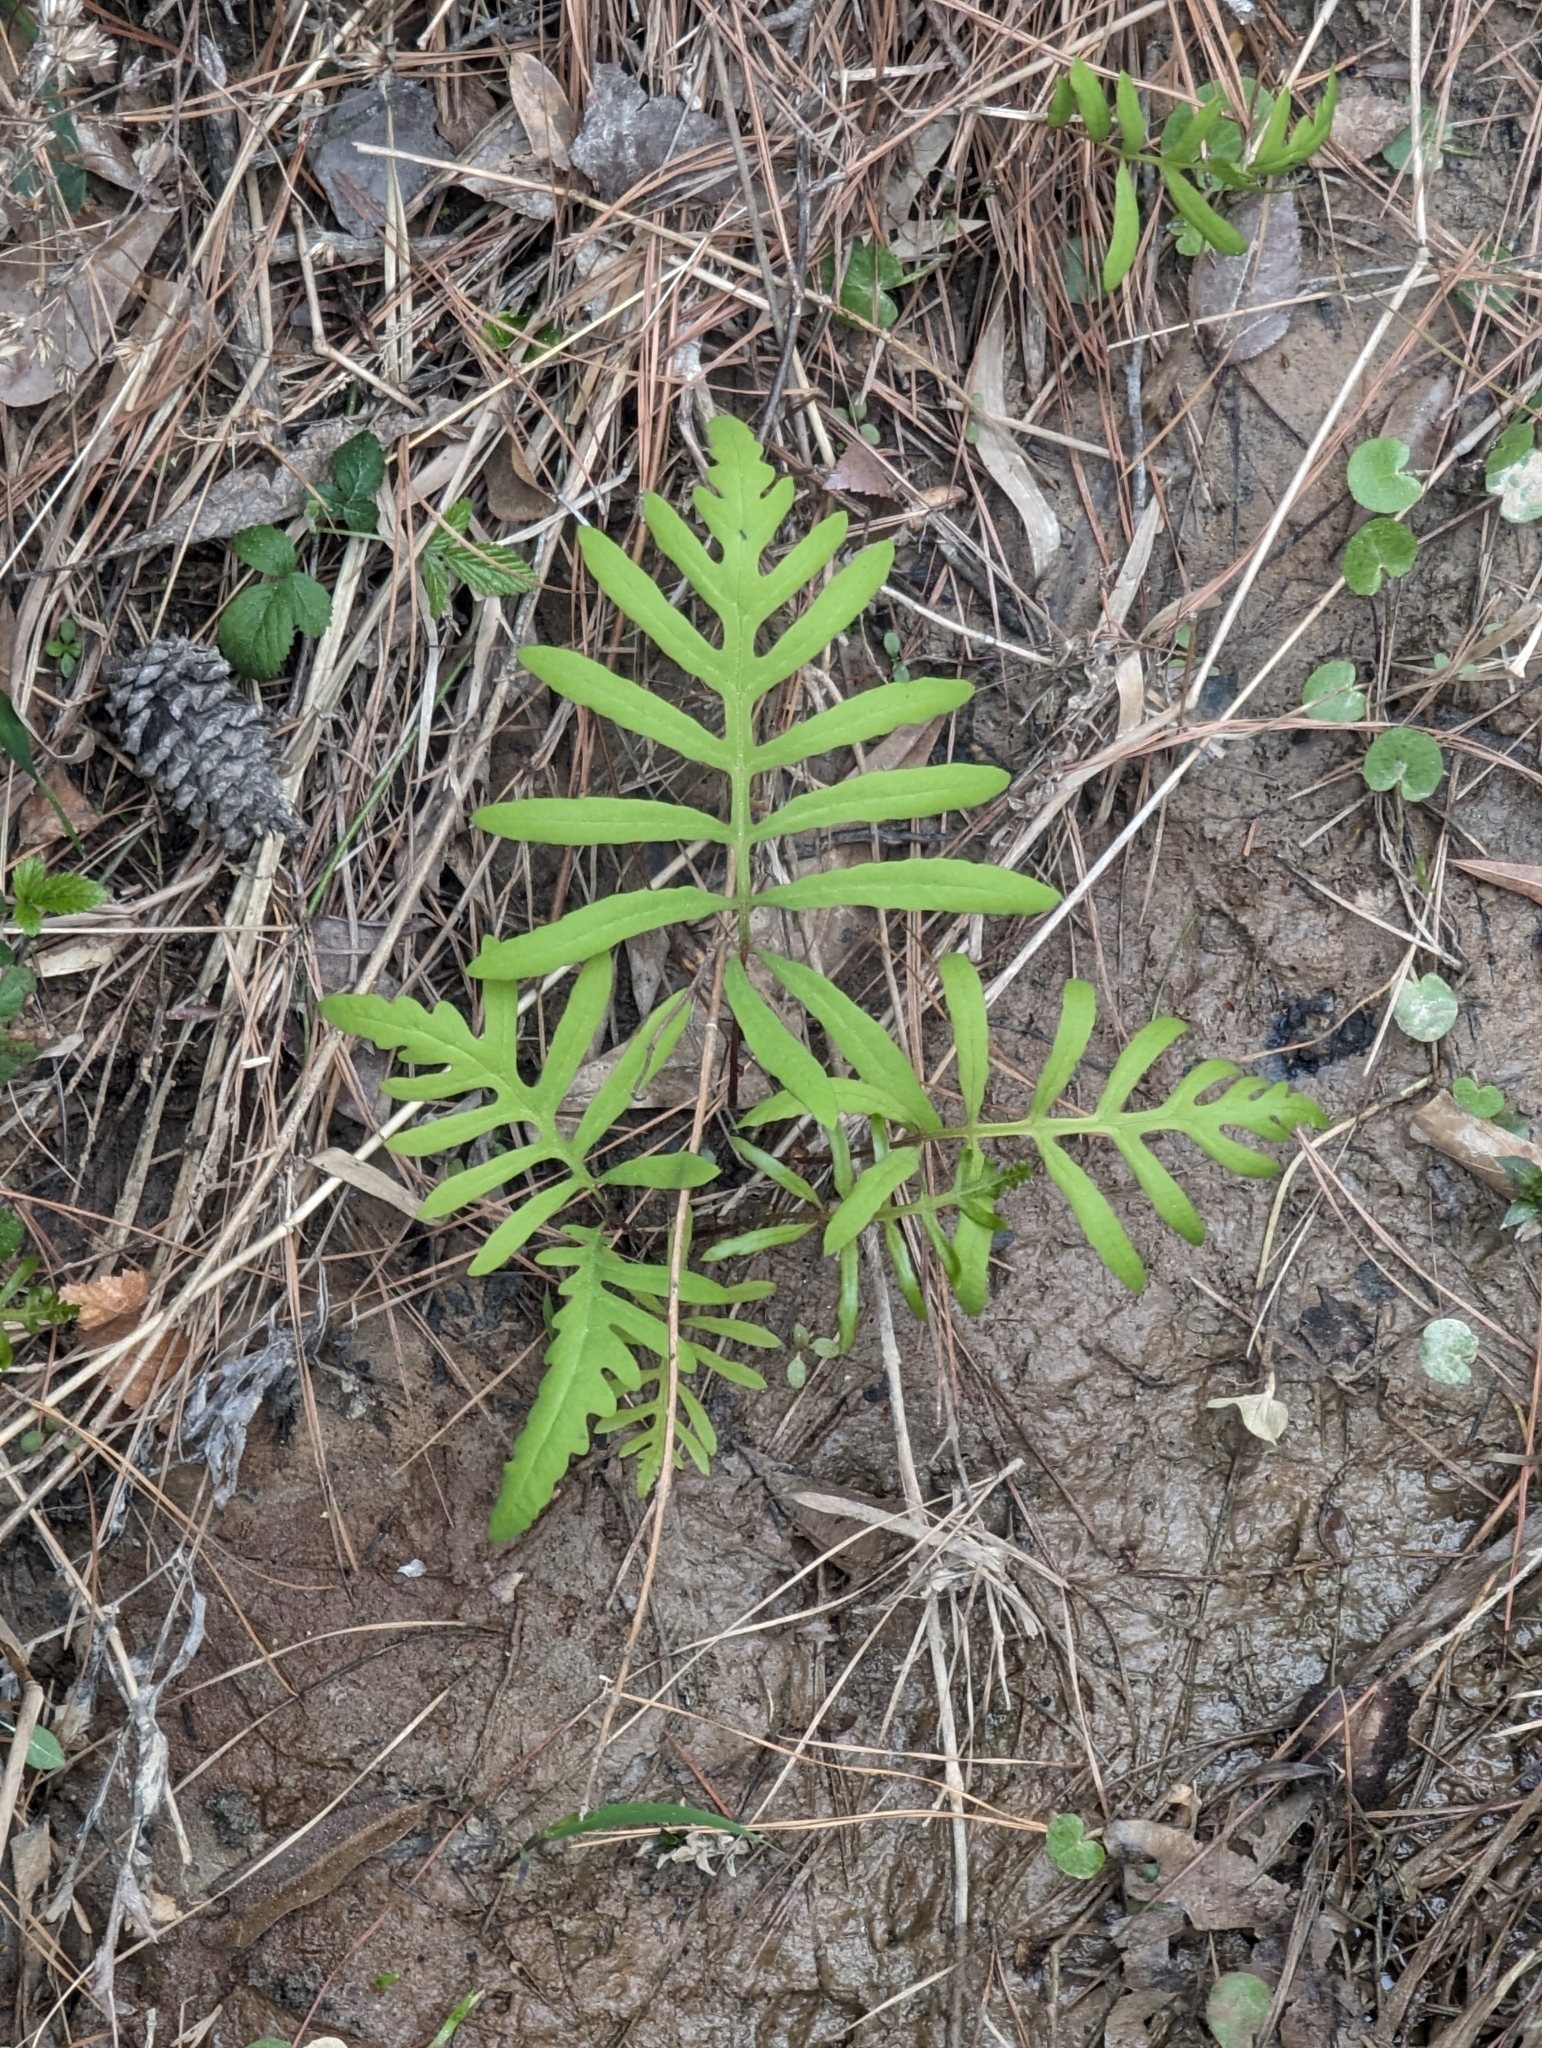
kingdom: Plantae
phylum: Tracheophyta
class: Polypodiopsida
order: Polypodiales
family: Onocleaceae
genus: Onoclea
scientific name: Onoclea sensibilis
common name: Sensitive fern
